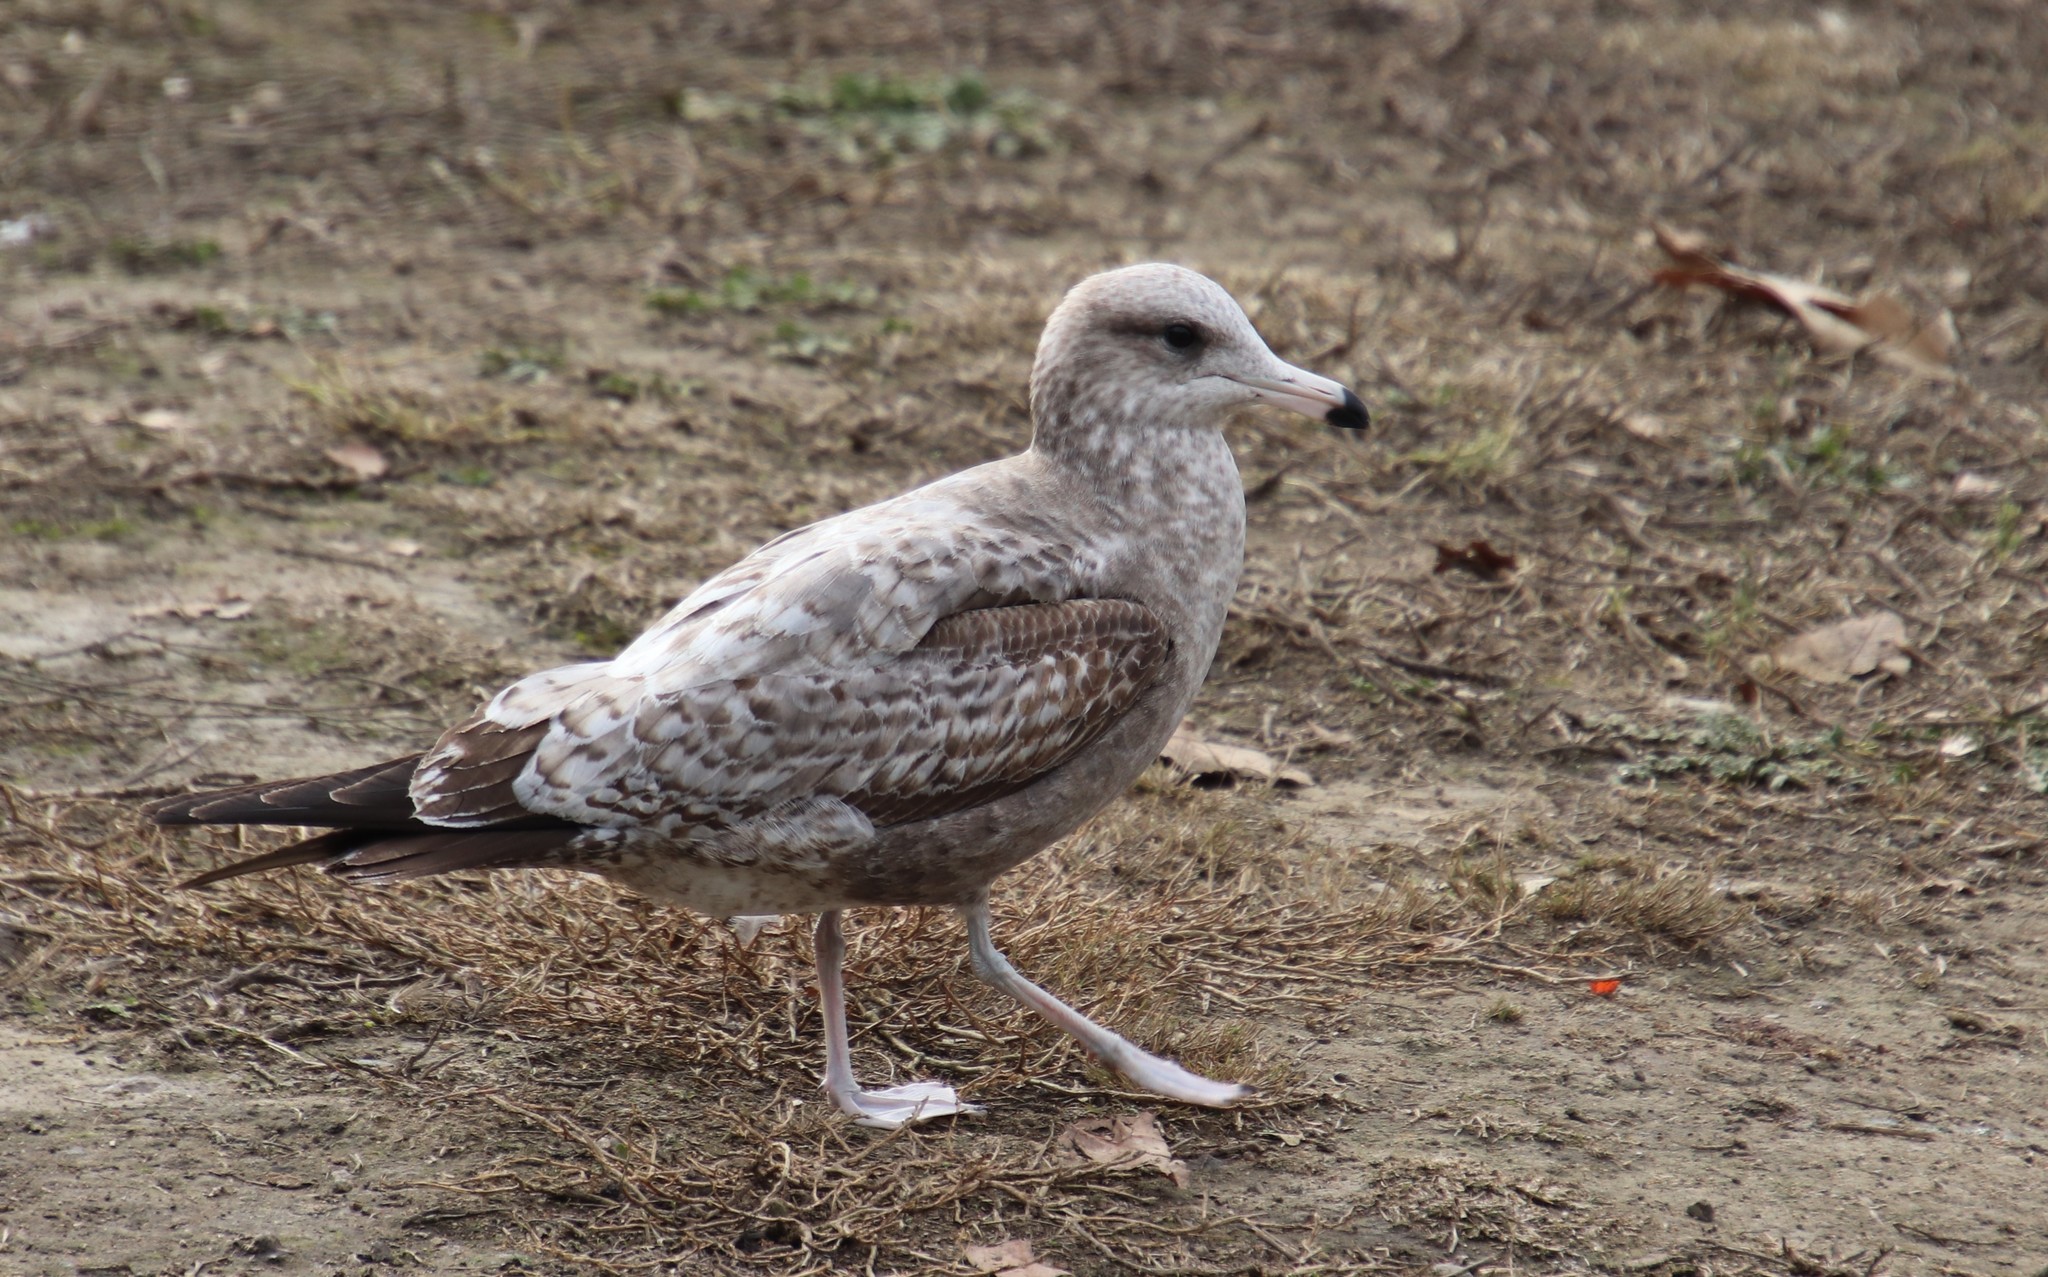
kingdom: Animalia
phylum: Chordata
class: Aves
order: Charadriiformes
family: Laridae
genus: Larus
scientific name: Larus californicus
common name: California gull
